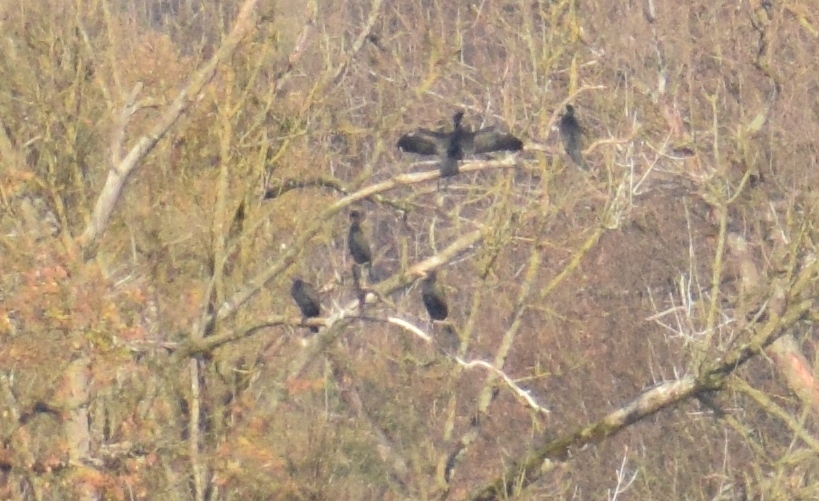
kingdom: Animalia
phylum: Chordata
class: Aves
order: Suliformes
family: Phalacrocoracidae
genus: Phalacrocorax
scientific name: Phalacrocorax carbo
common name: Great cormorant
